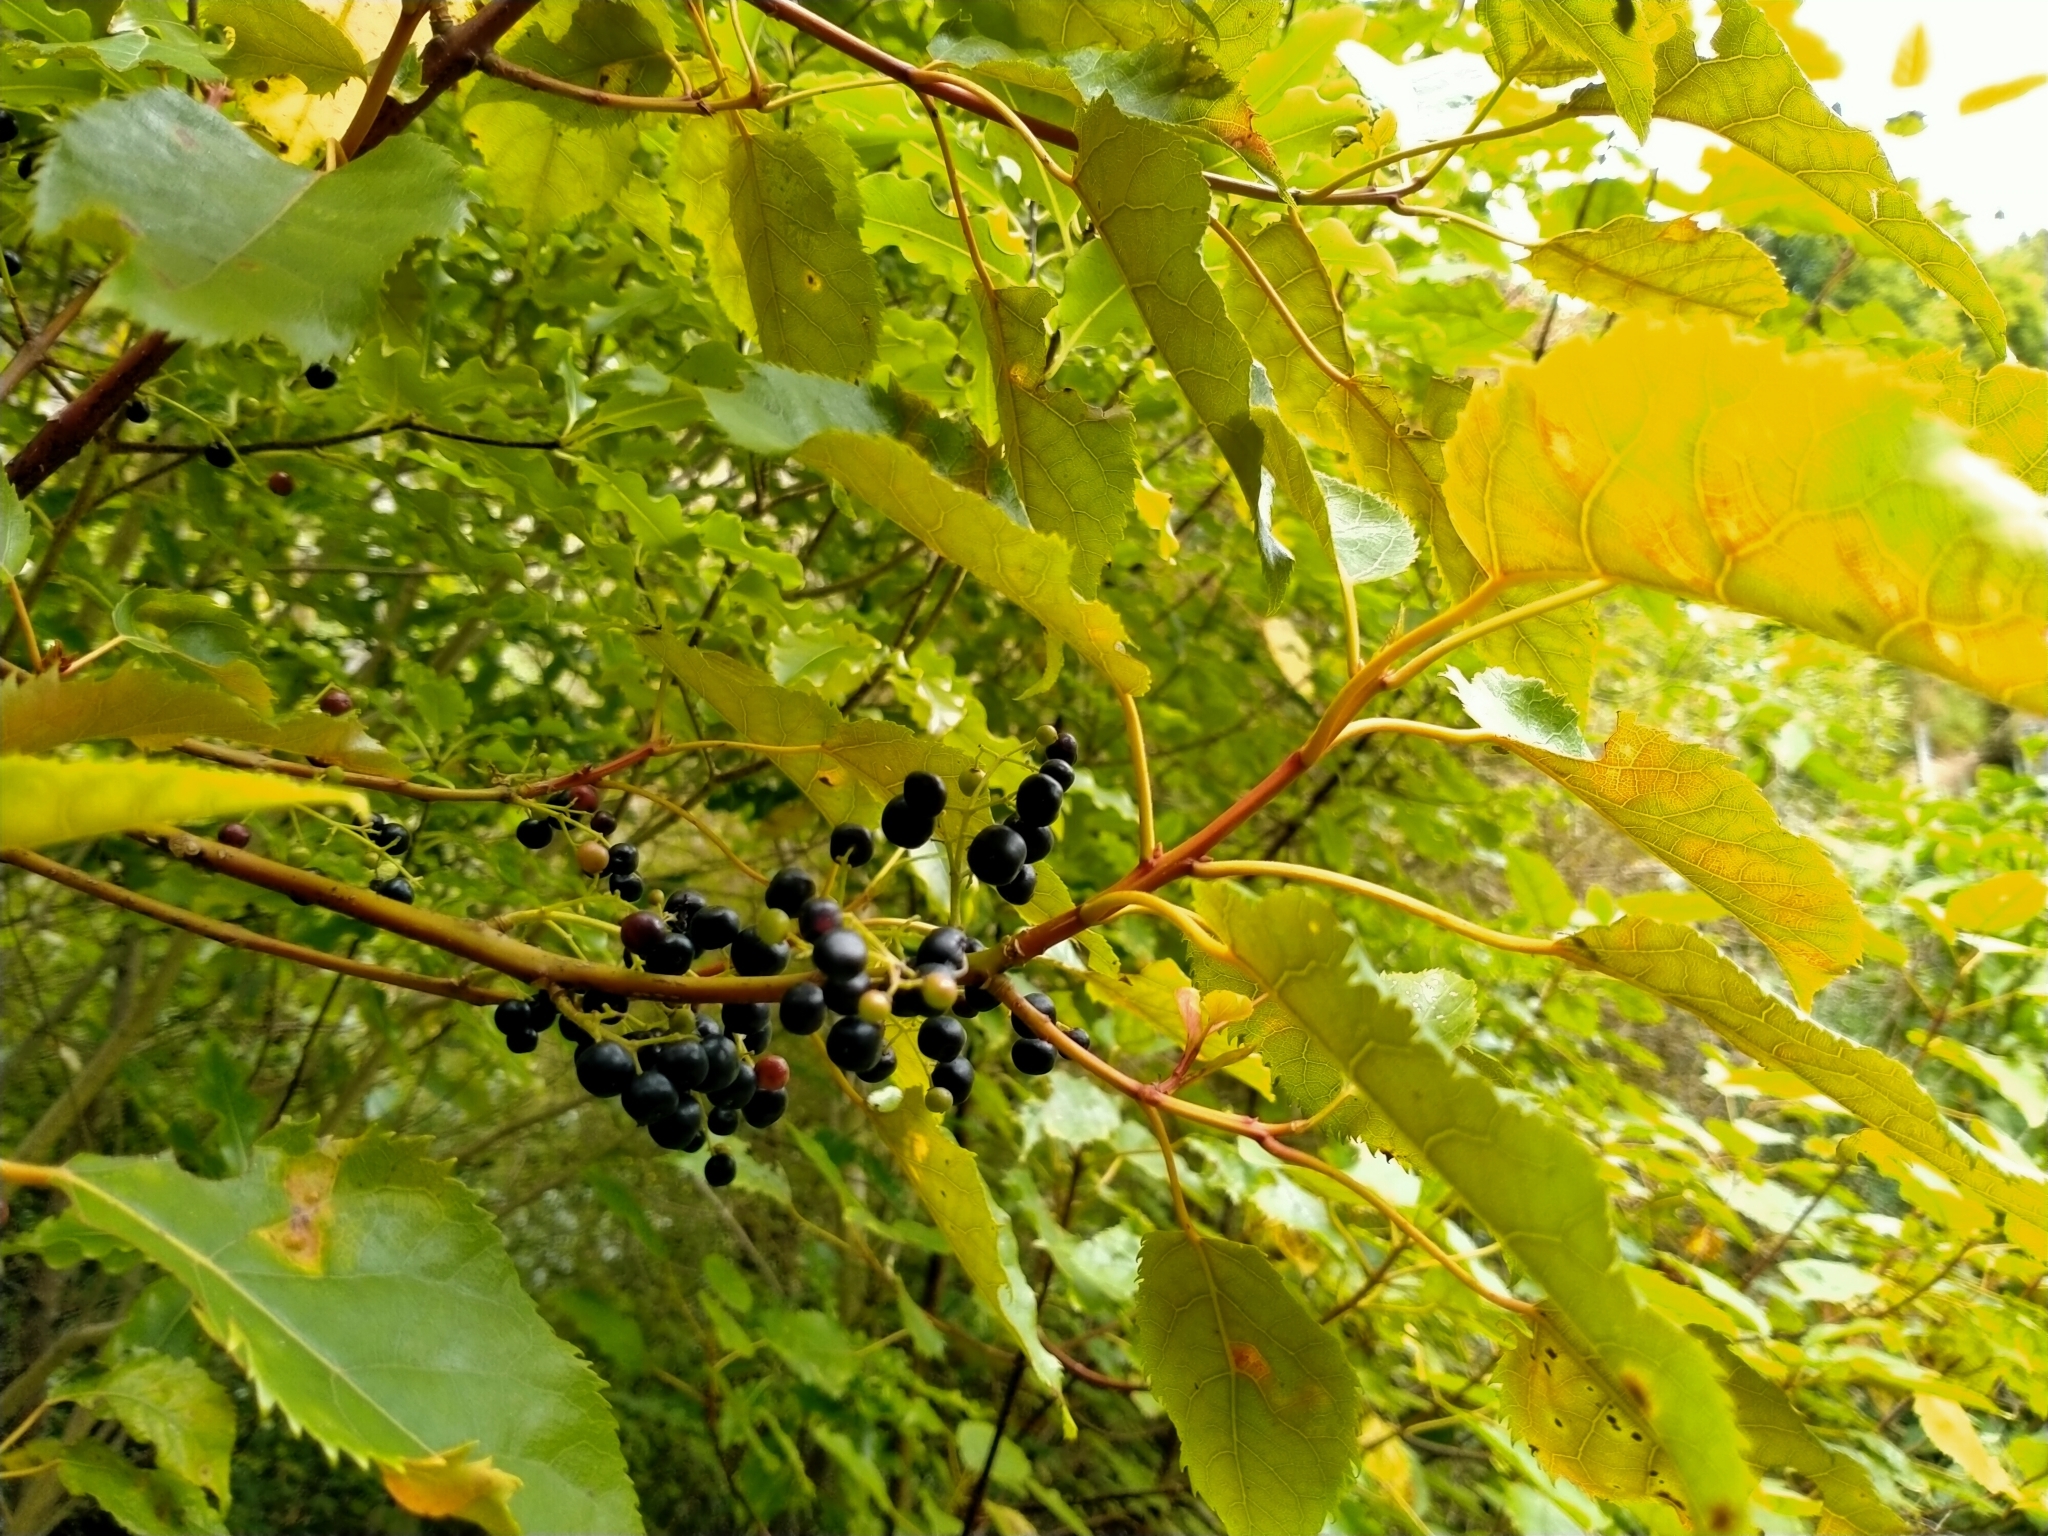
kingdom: Plantae
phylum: Tracheophyta
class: Magnoliopsida
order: Oxalidales
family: Elaeocarpaceae
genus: Aristotelia
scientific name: Aristotelia serrata
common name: New zealand wineberry
